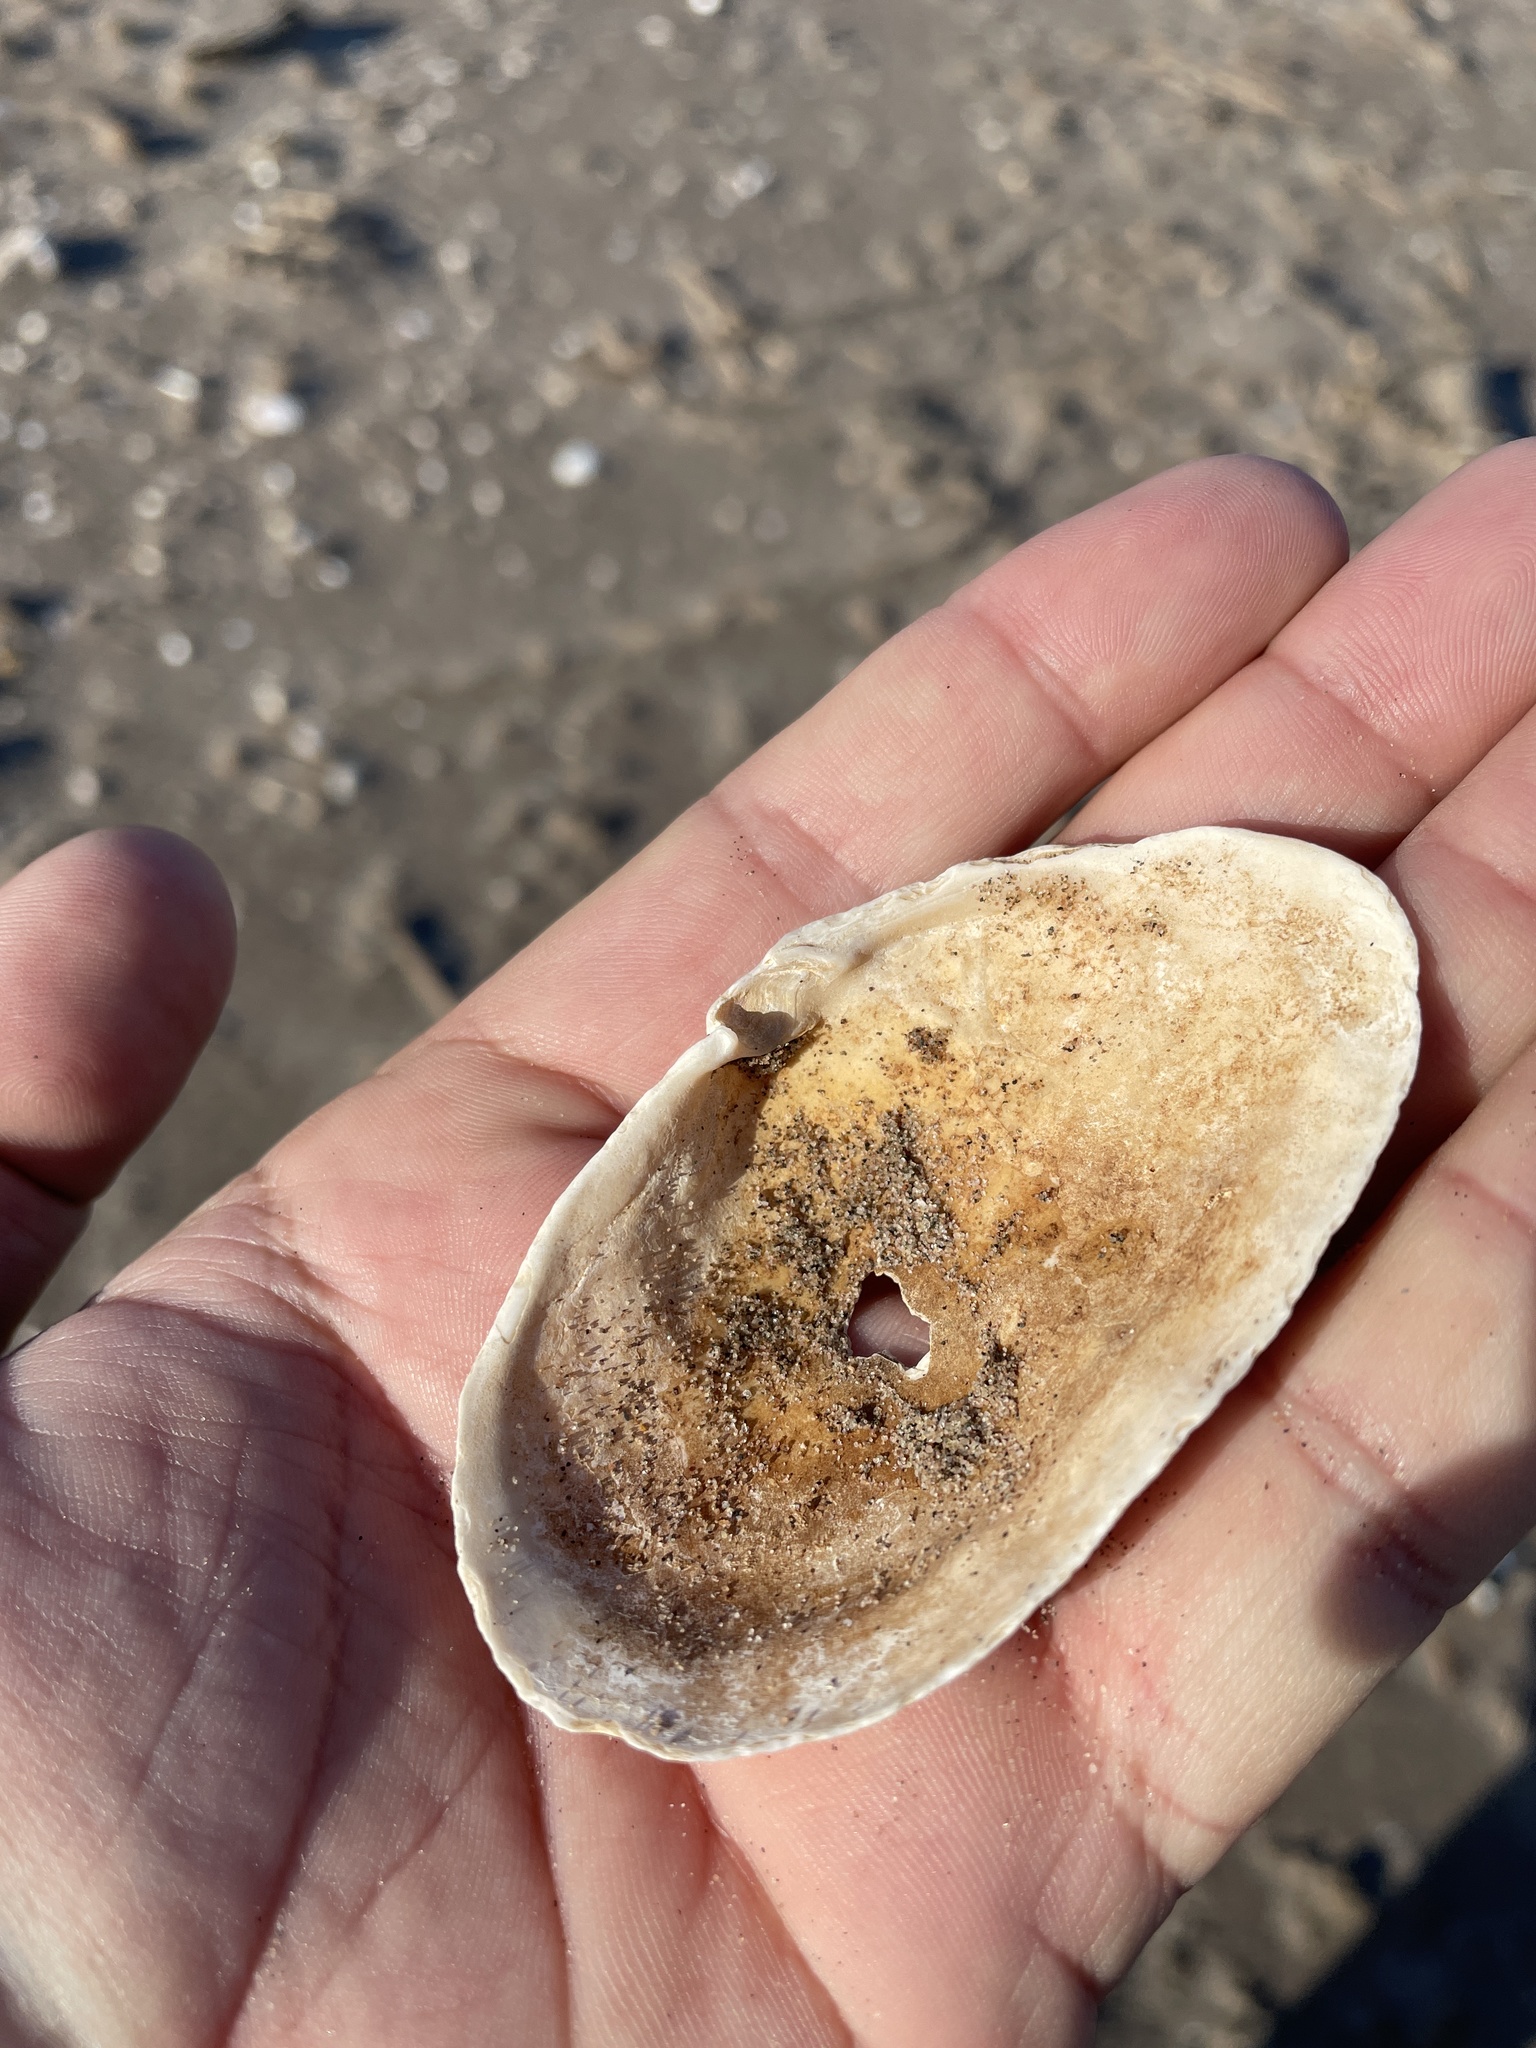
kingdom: Animalia
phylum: Mollusca
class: Bivalvia
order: Myida
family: Myidae
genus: Mya
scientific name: Mya arenaria
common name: Soft-shelled clam
